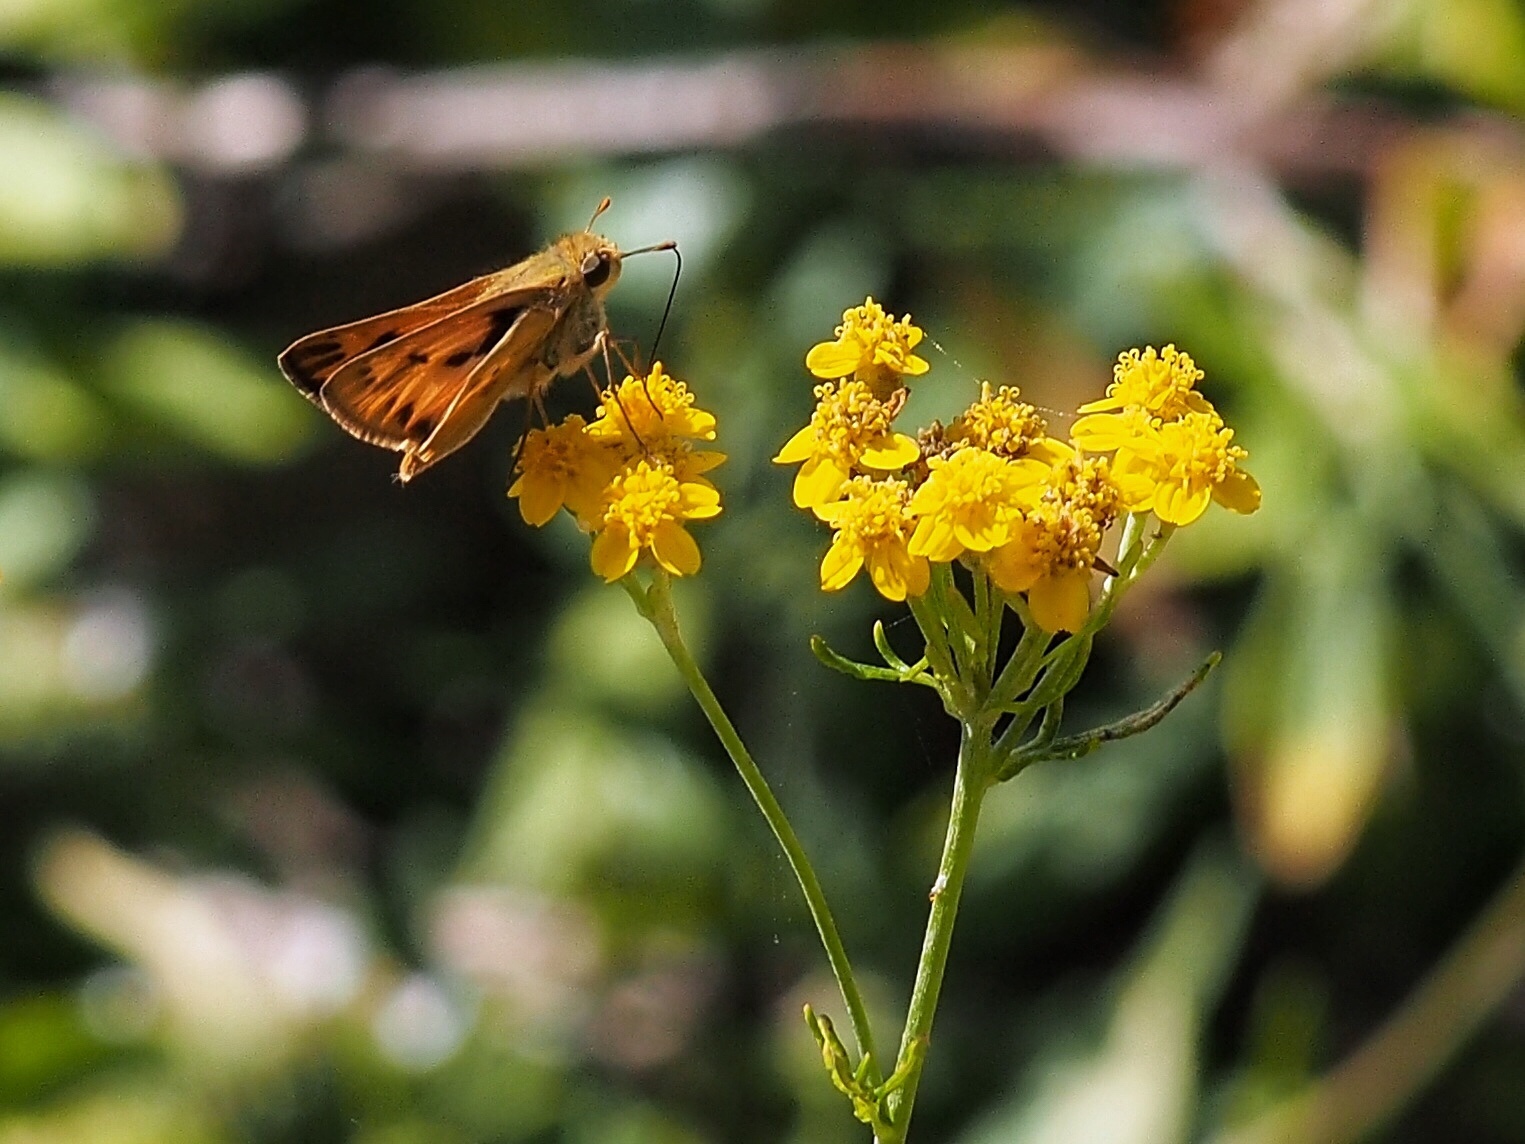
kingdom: Animalia
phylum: Arthropoda
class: Insecta
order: Lepidoptera
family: Hesperiidae
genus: Hylephila
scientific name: Hylephila phyleus
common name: Fiery skipper
